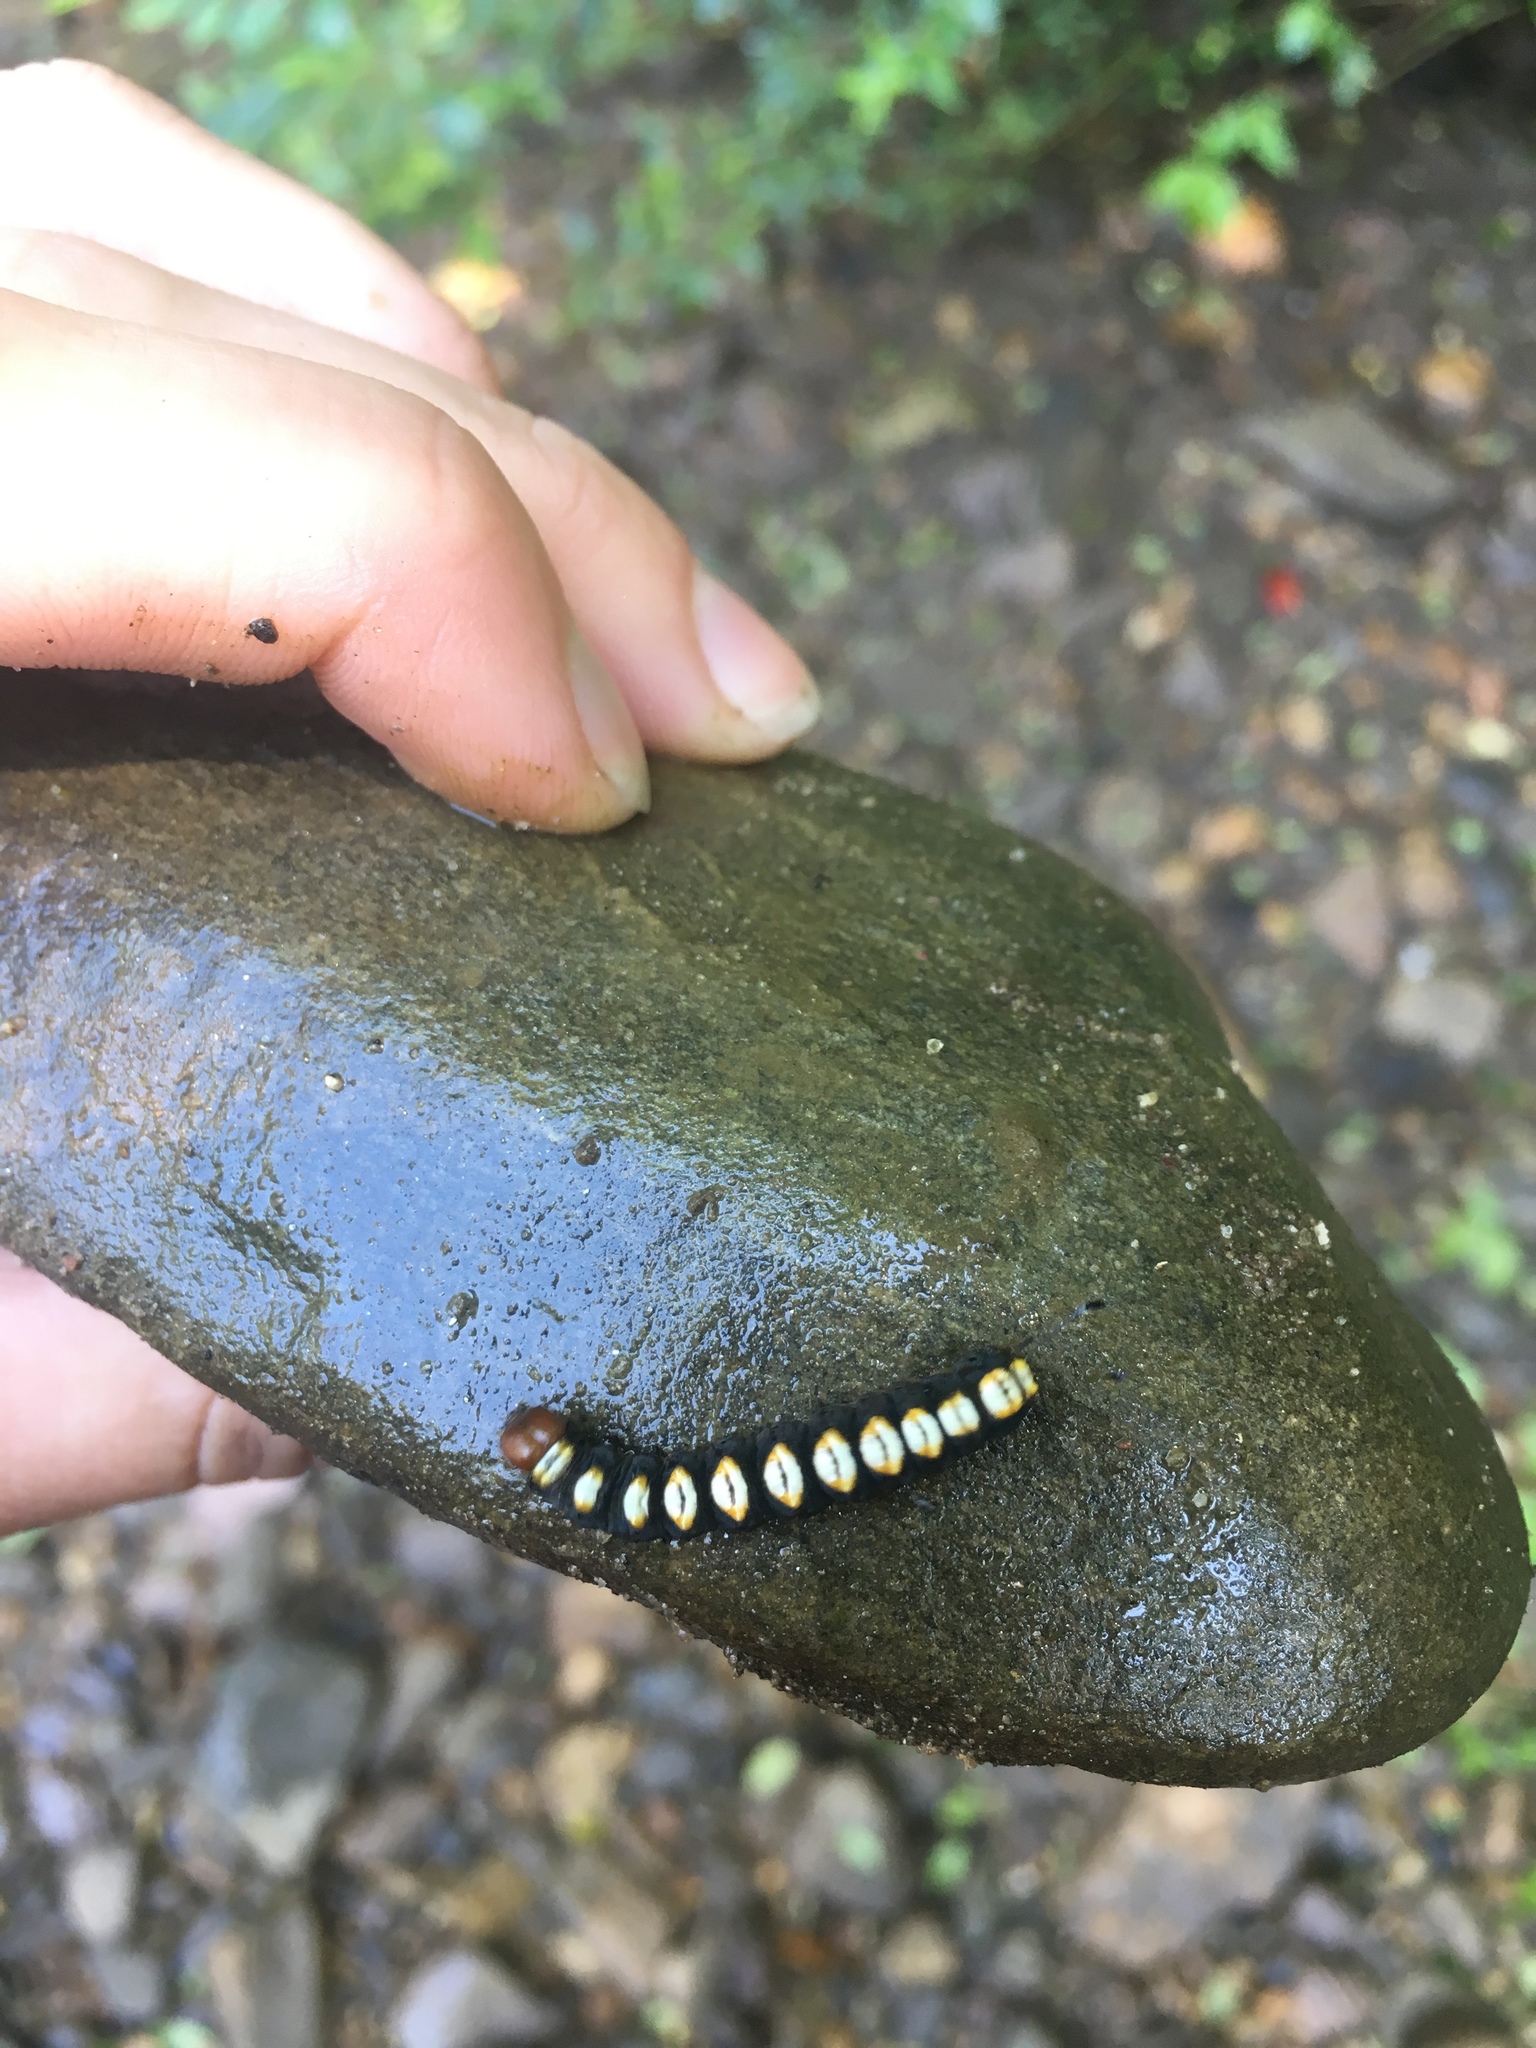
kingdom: Animalia
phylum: Arthropoda
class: Insecta
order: Lepidoptera
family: Noctuidae
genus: Acronicta
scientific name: Acronicta funeralis
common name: Funerary dagger
